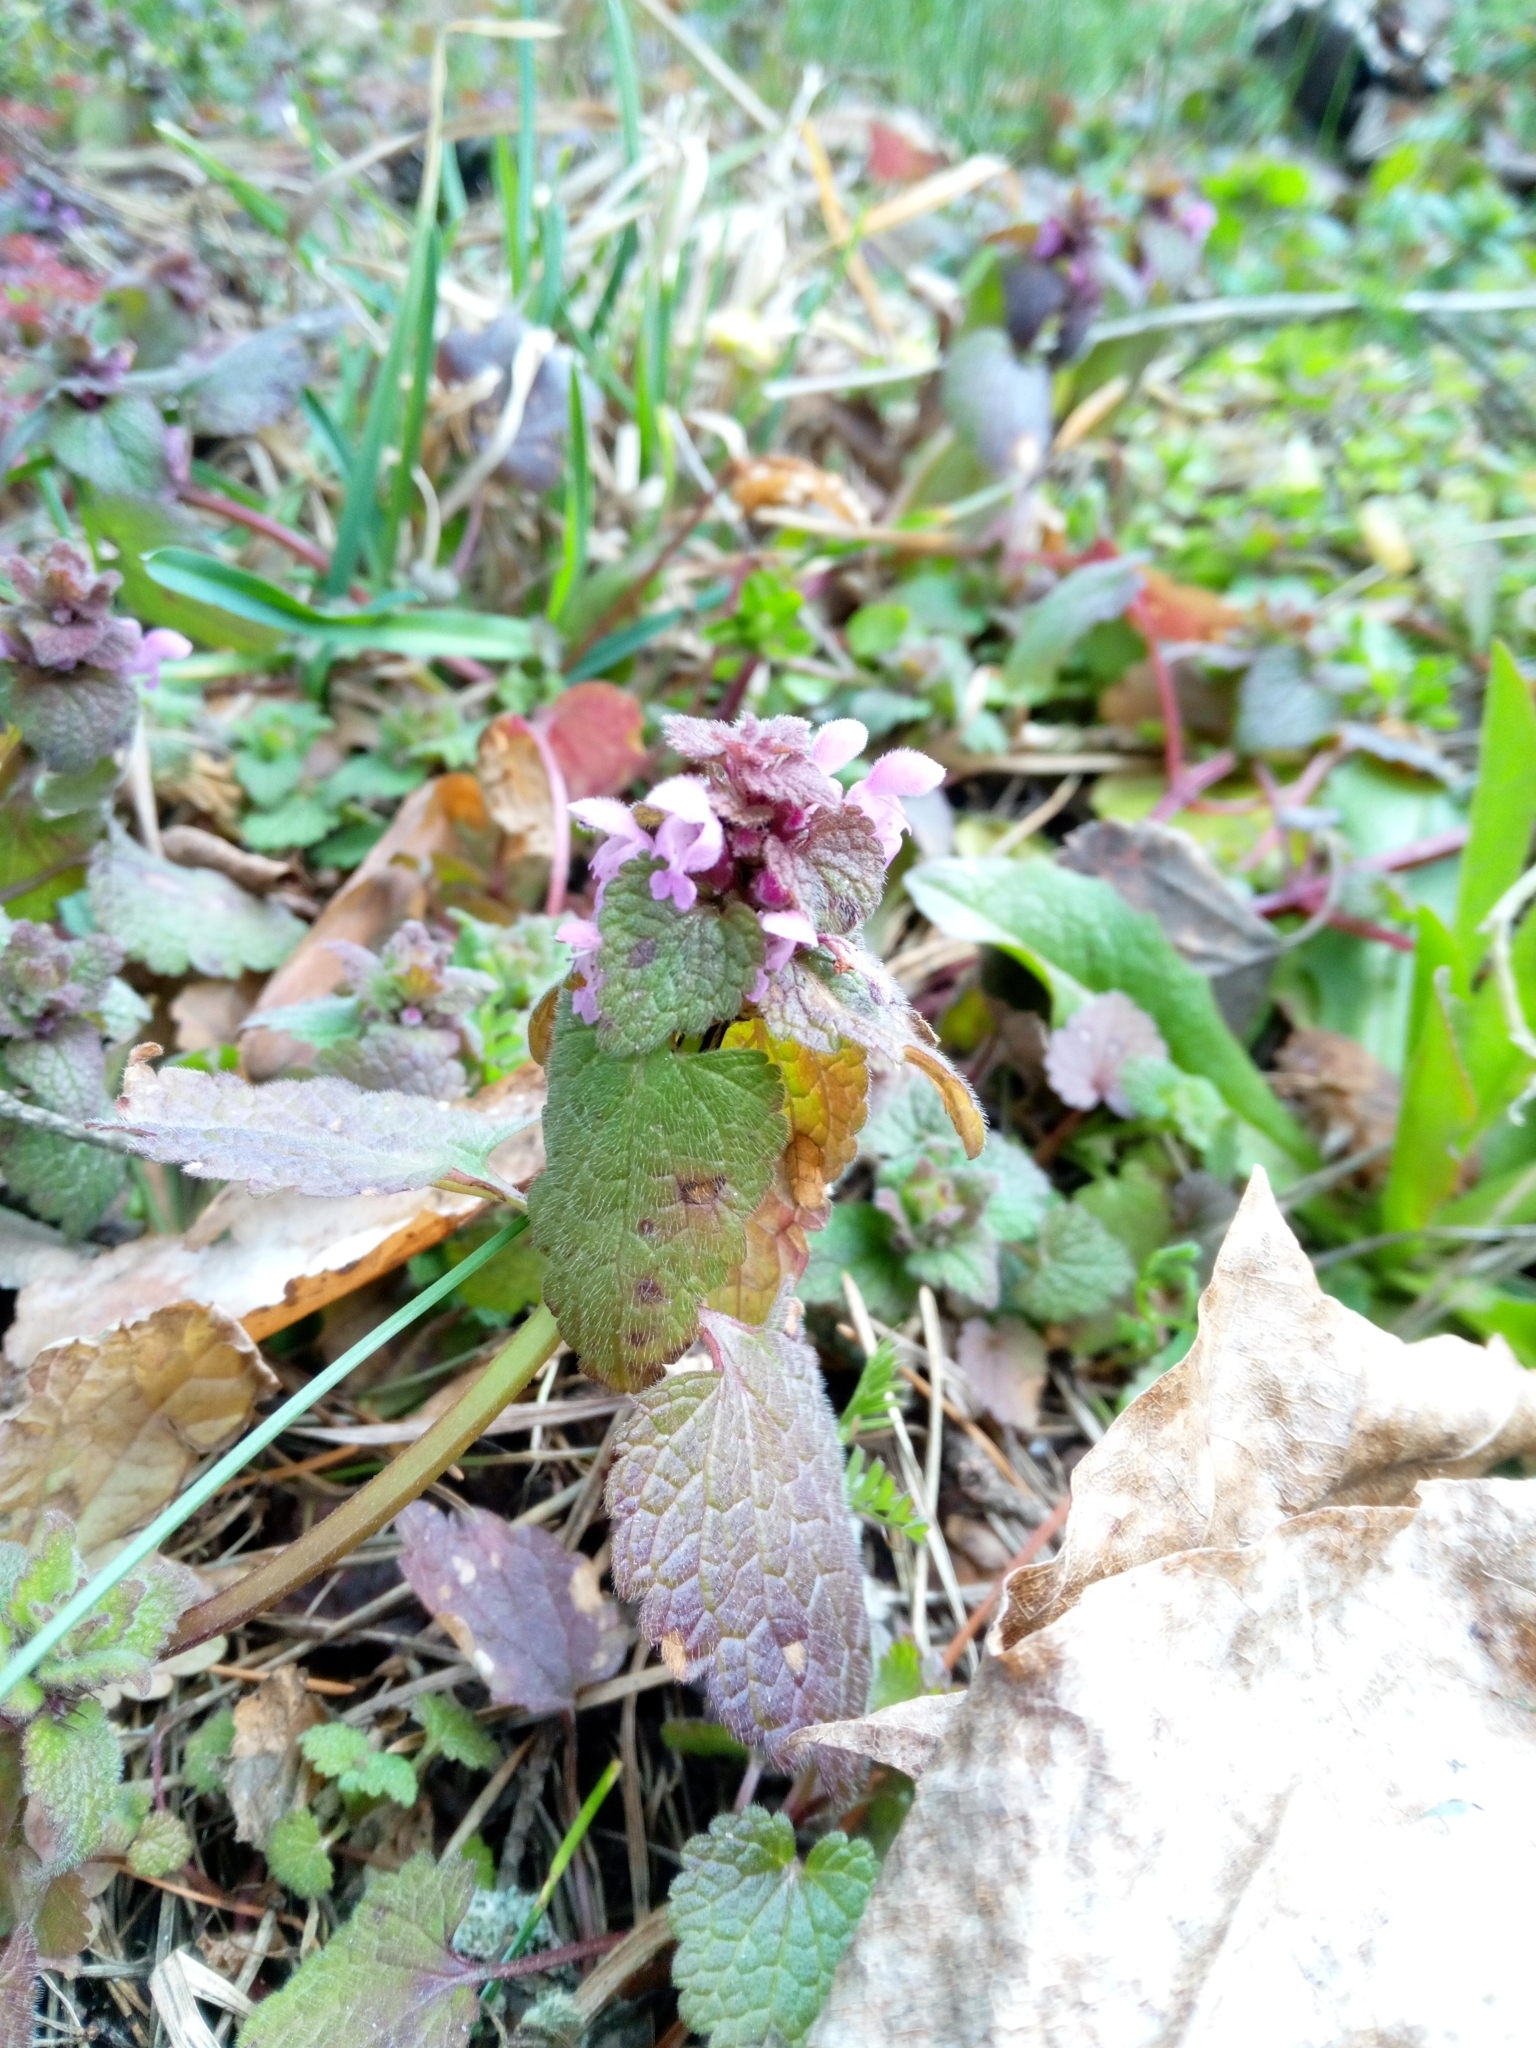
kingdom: Plantae
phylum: Tracheophyta
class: Magnoliopsida
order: Lamiales
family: Lamiaceae
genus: Lamium
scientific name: Lamium purpureum
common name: Red dead-nettle
